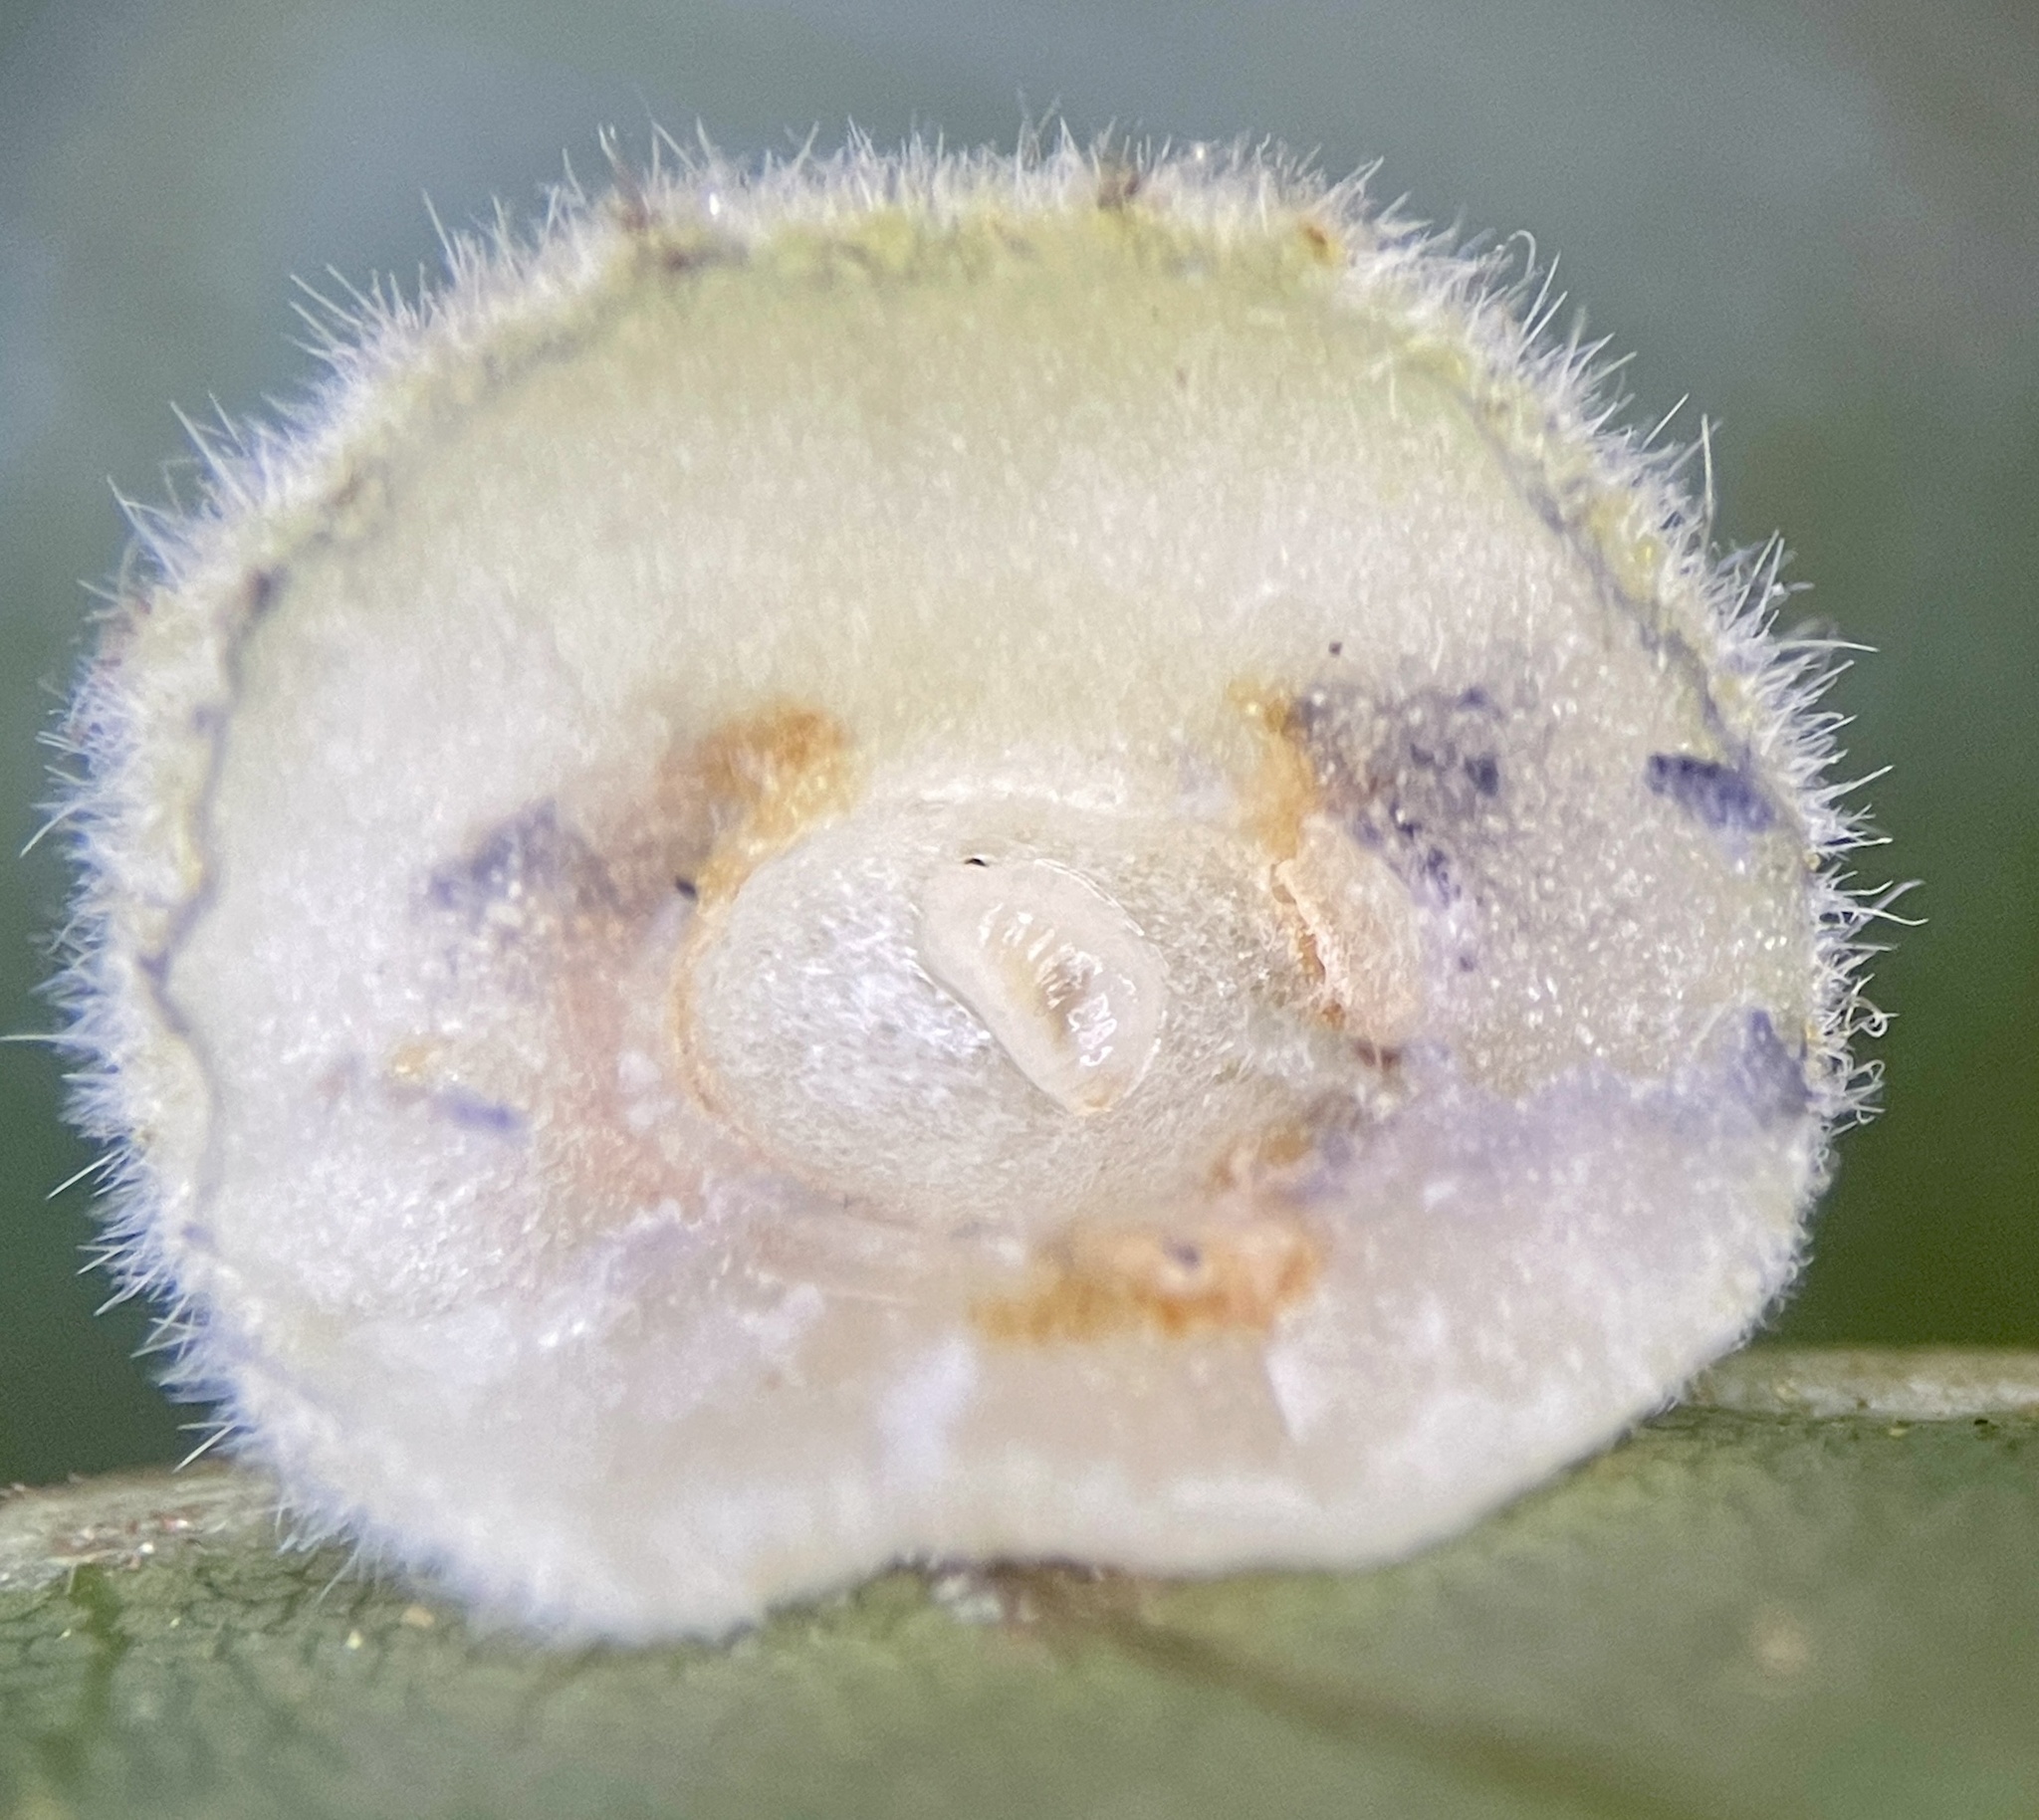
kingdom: Animalia
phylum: Arthropoda
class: Insecta
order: Diptera
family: Cecidomyiidae
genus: Caryomyia
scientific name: Caryomyia persicoides
